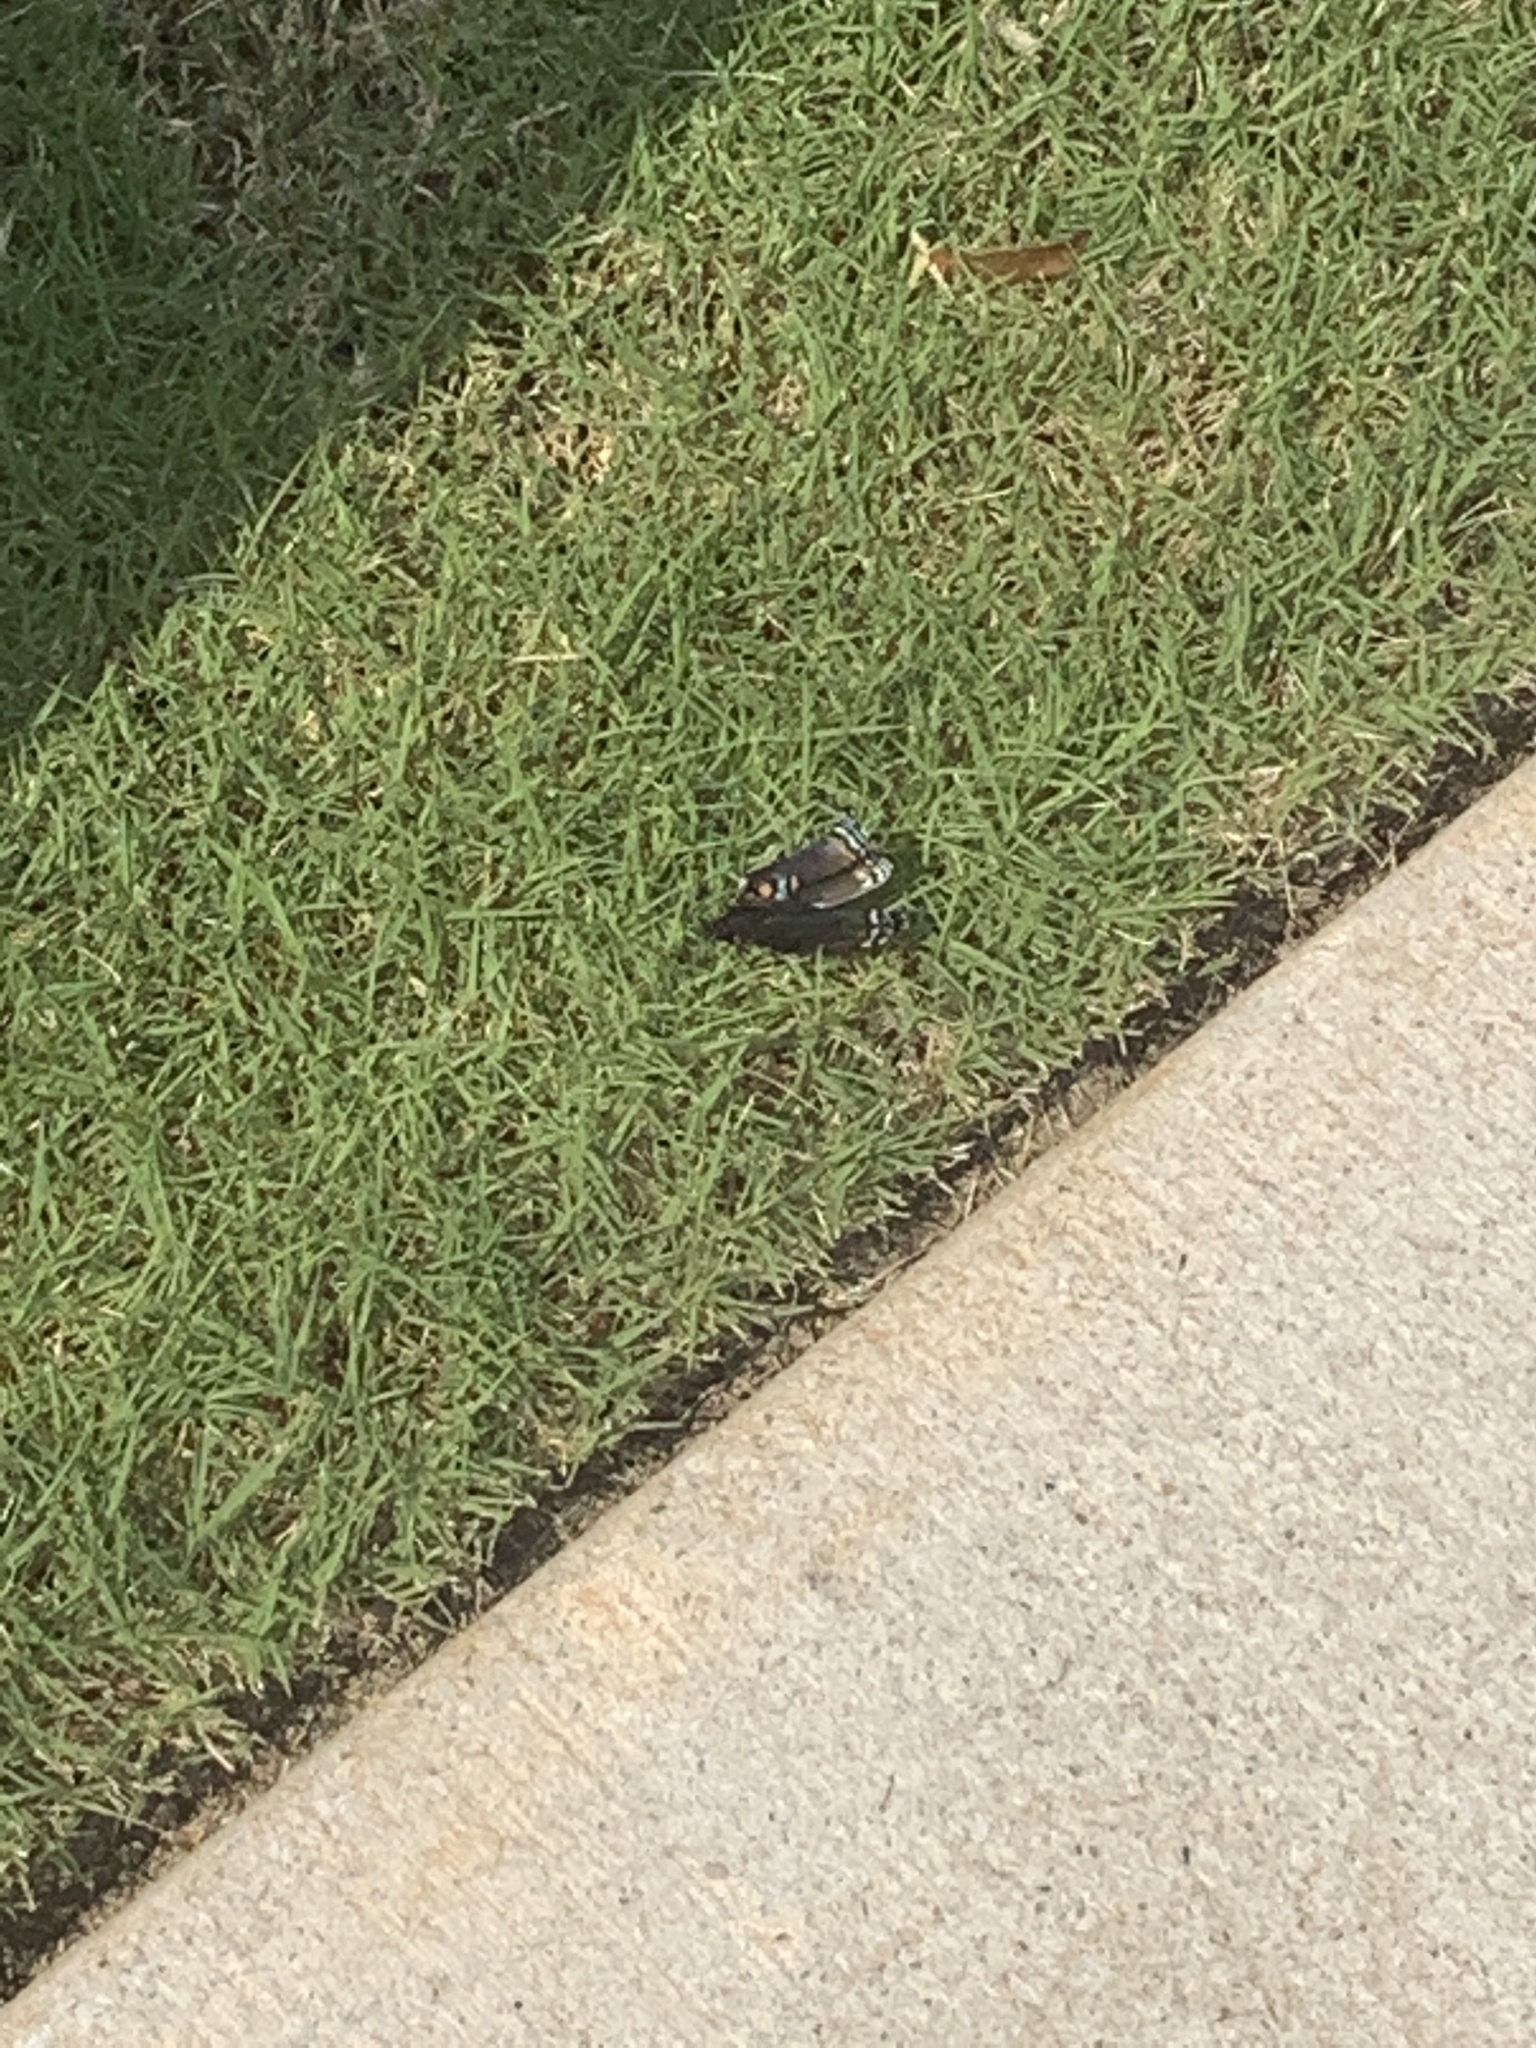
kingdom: Animalia
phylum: Arthropoda
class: Insecta
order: Lepidoptera
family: Nymphalidae
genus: Limenitis
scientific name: Limenitis astyanax
